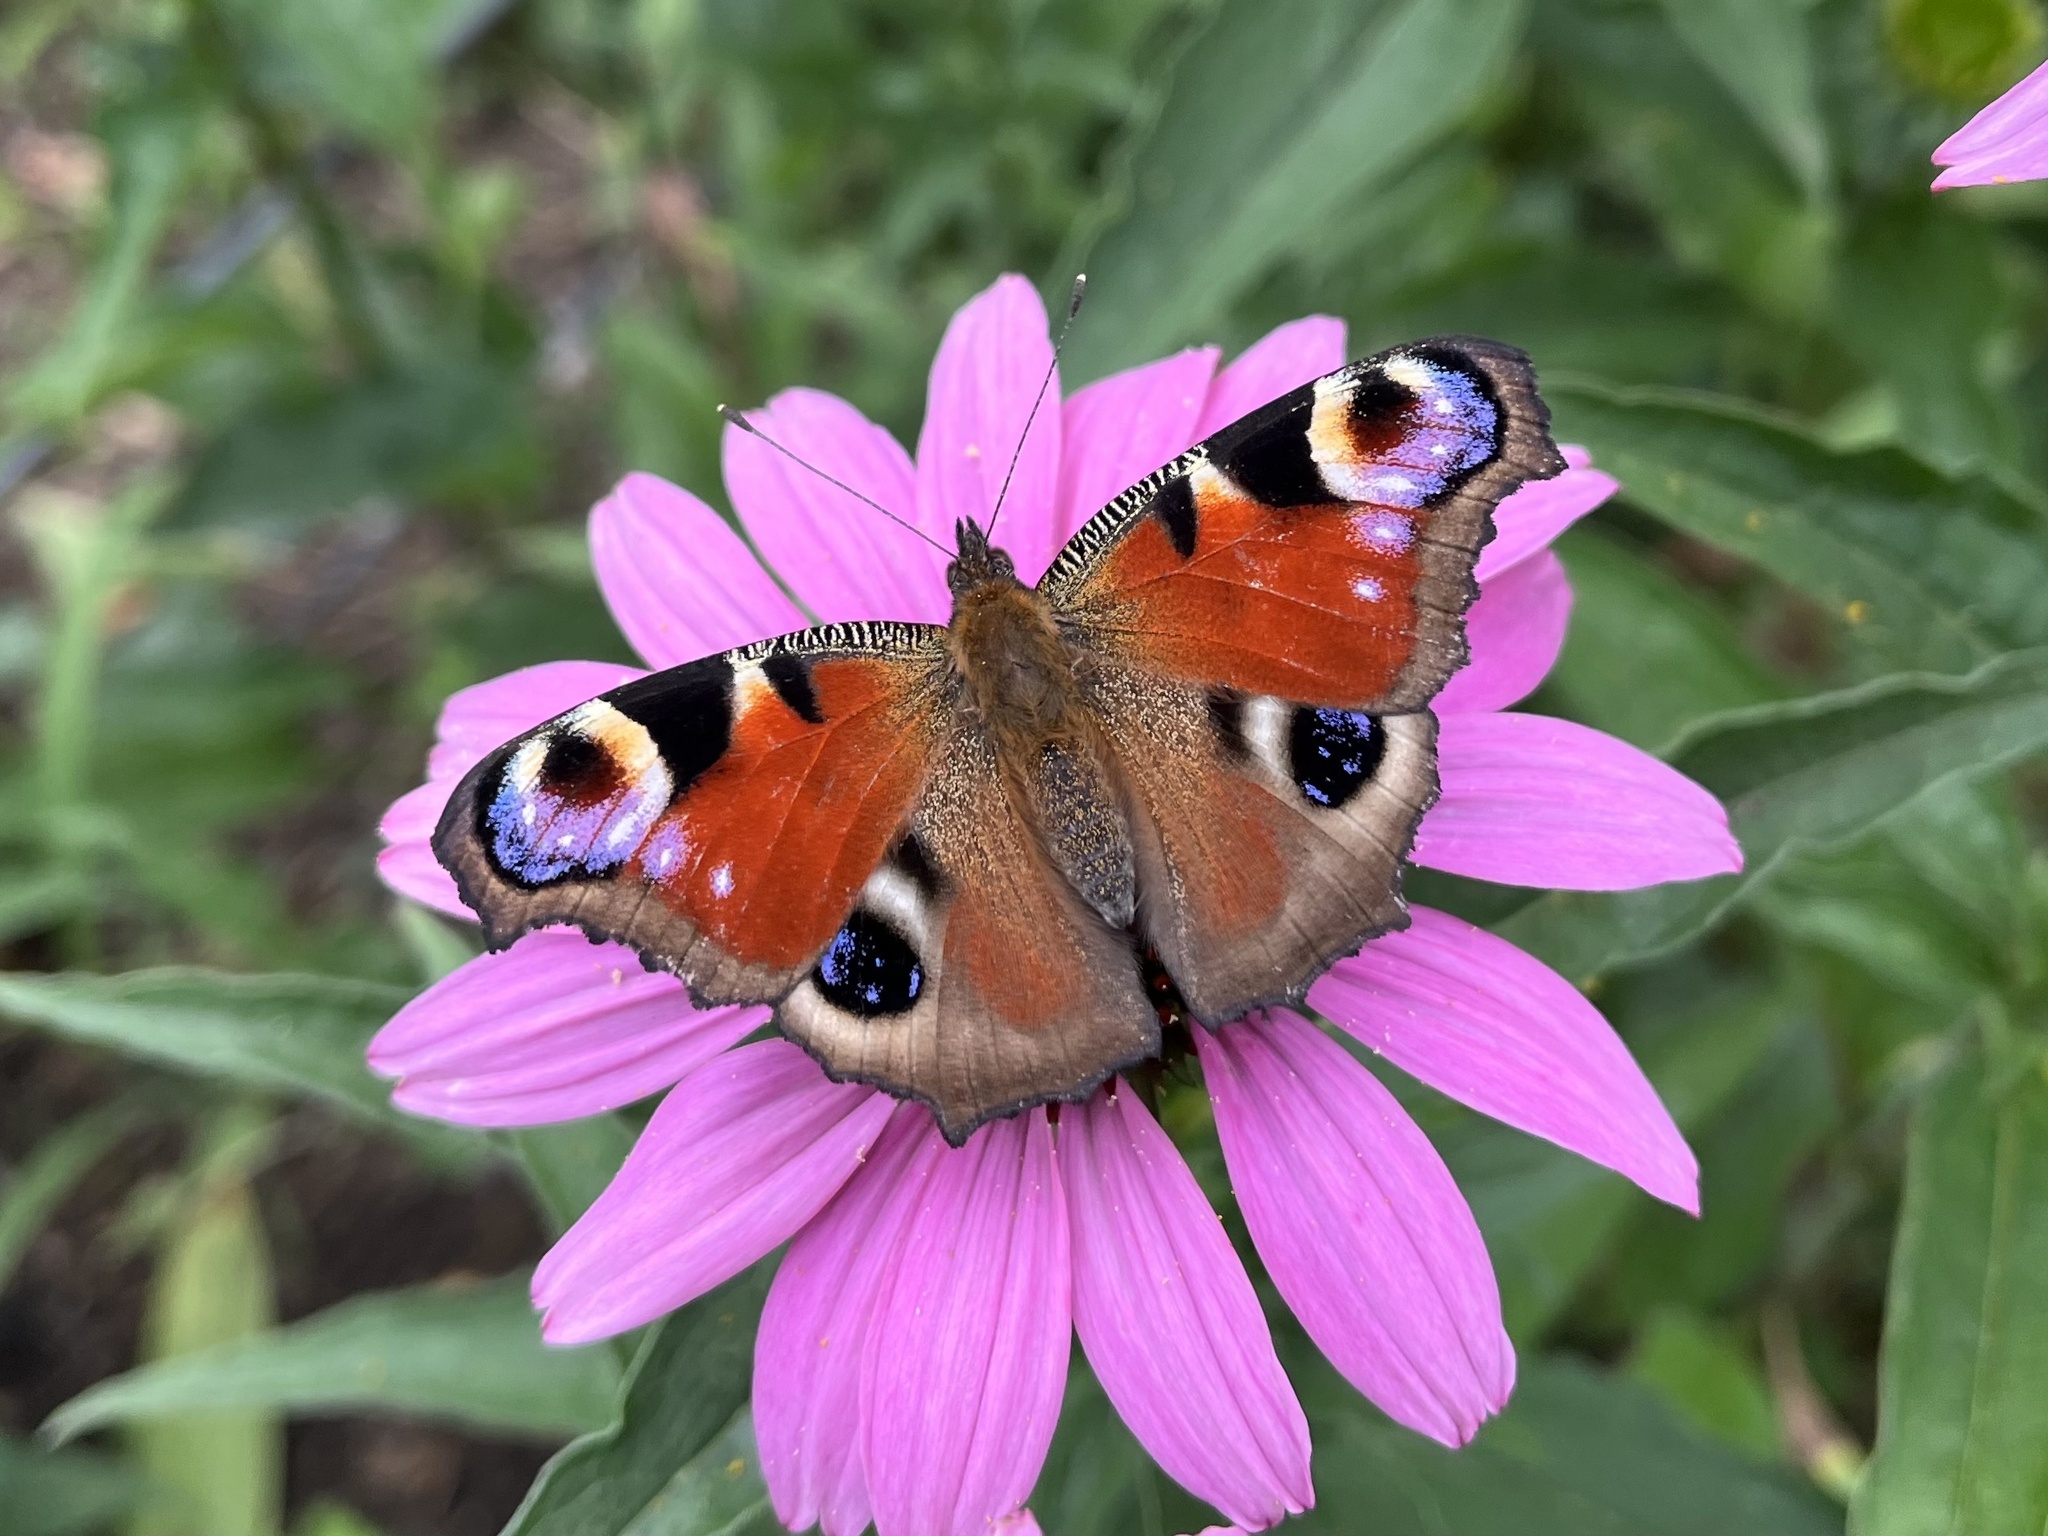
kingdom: Animalia
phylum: Arthropoda
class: Insecta
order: Lepidoptera
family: Nymphalidae
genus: Aglais
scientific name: Aglais io
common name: Peacock
